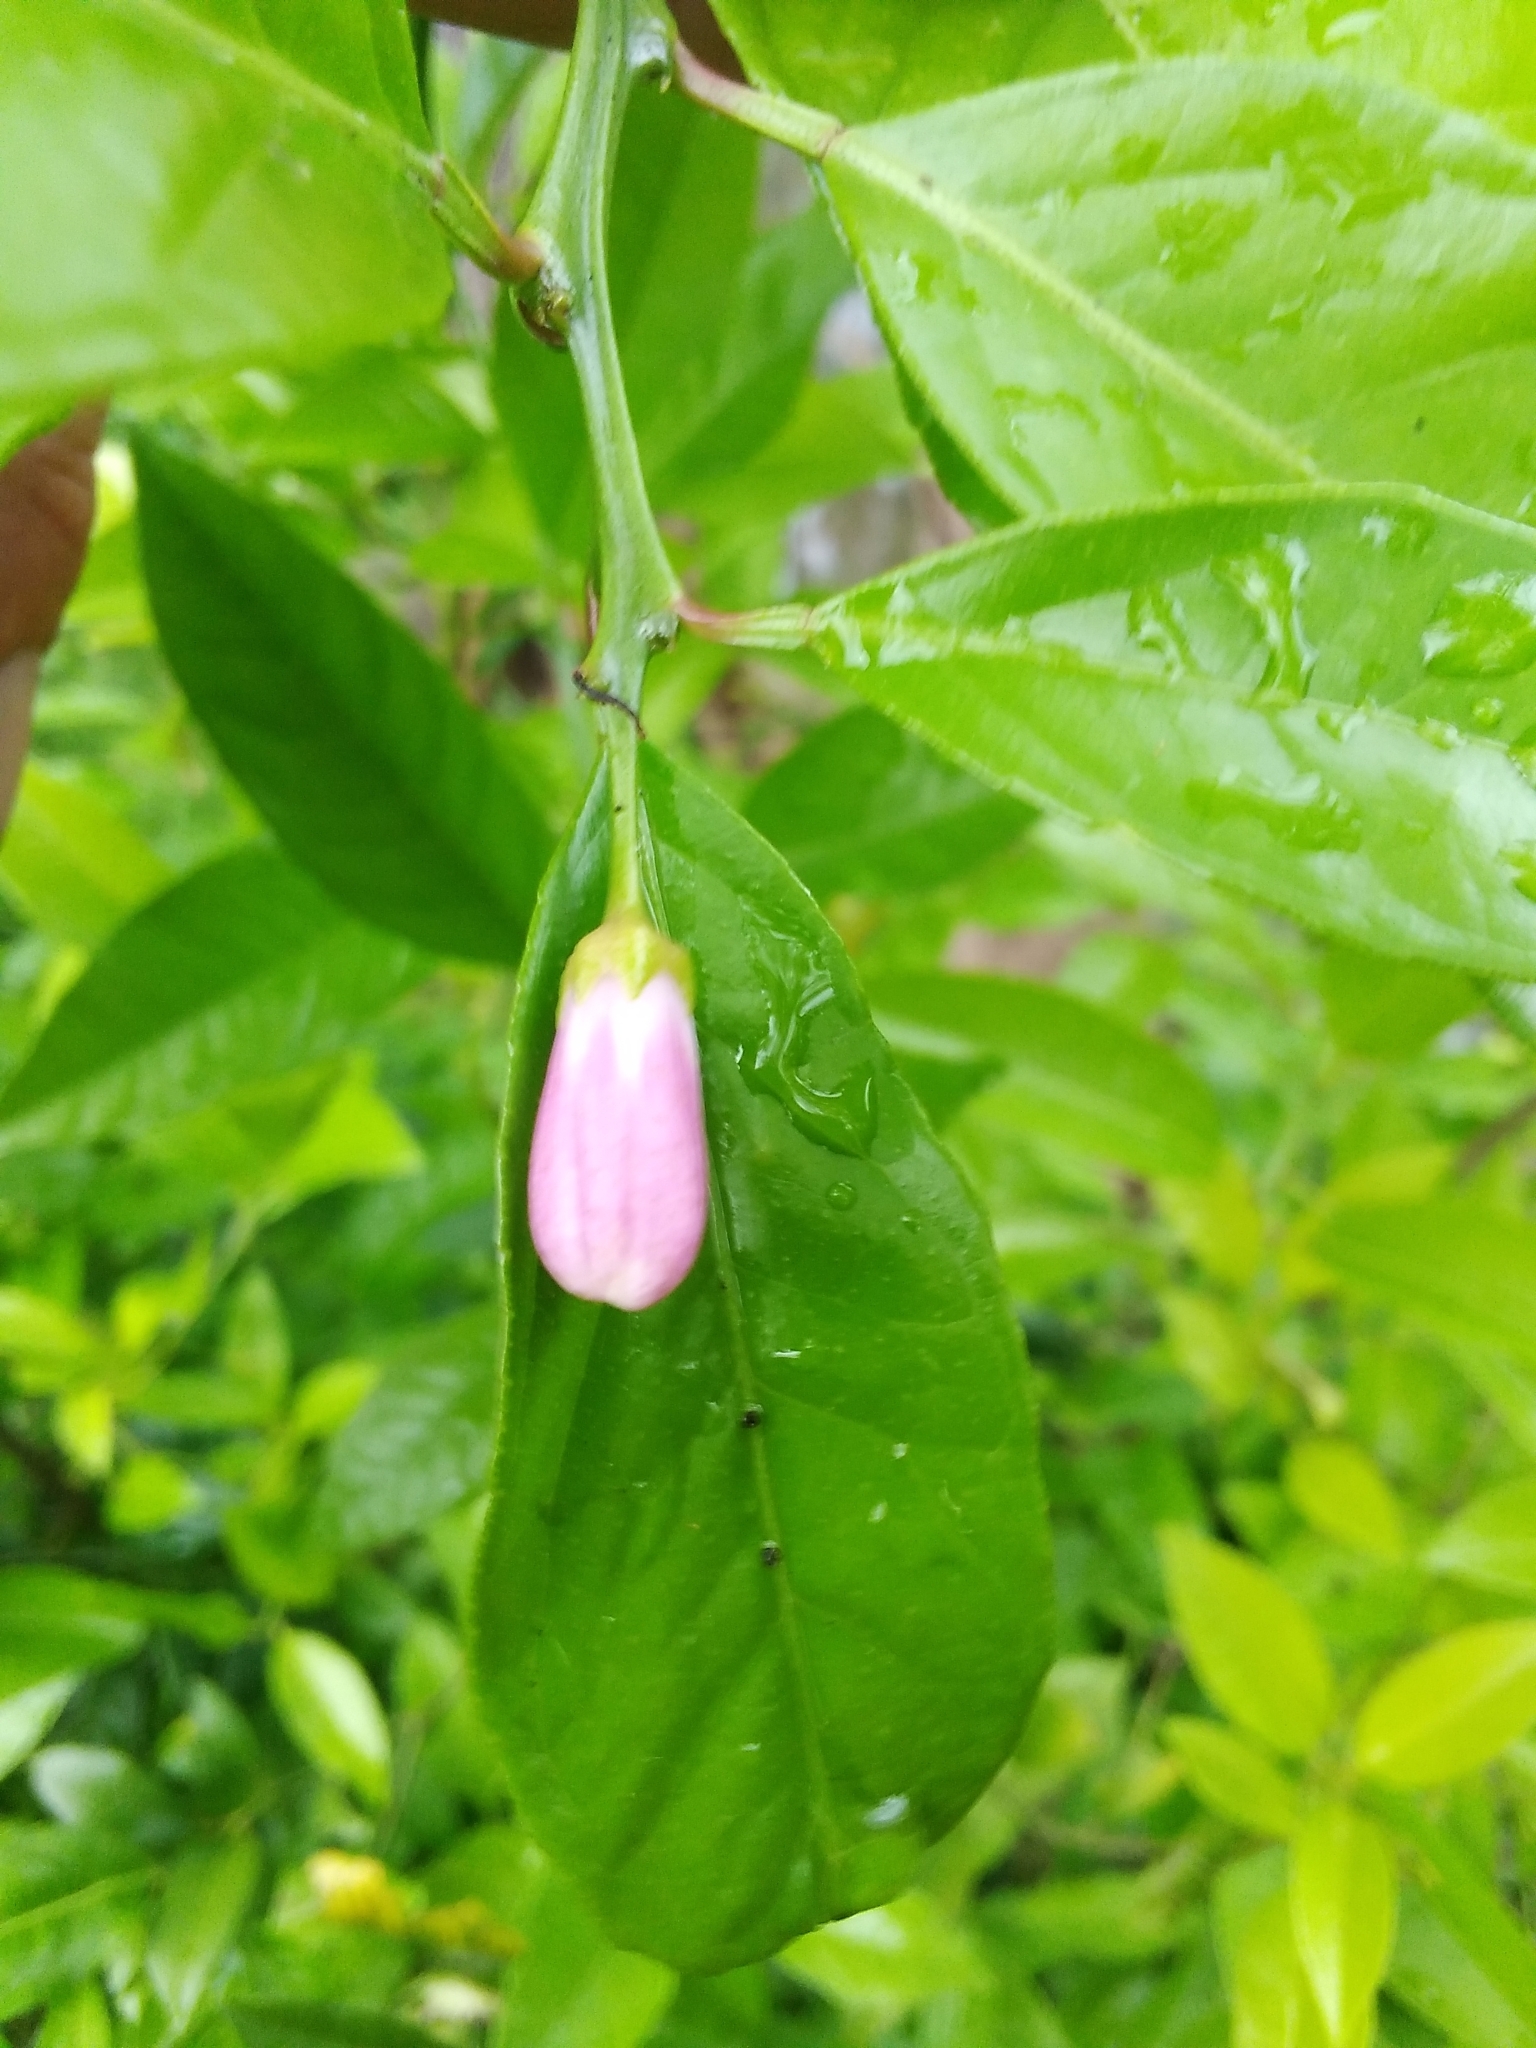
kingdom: Plantae
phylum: Tracheophyta
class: Magnoliopsida
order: Sapindales
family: Rutaceae
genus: Citrus
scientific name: Citrus taitensis
